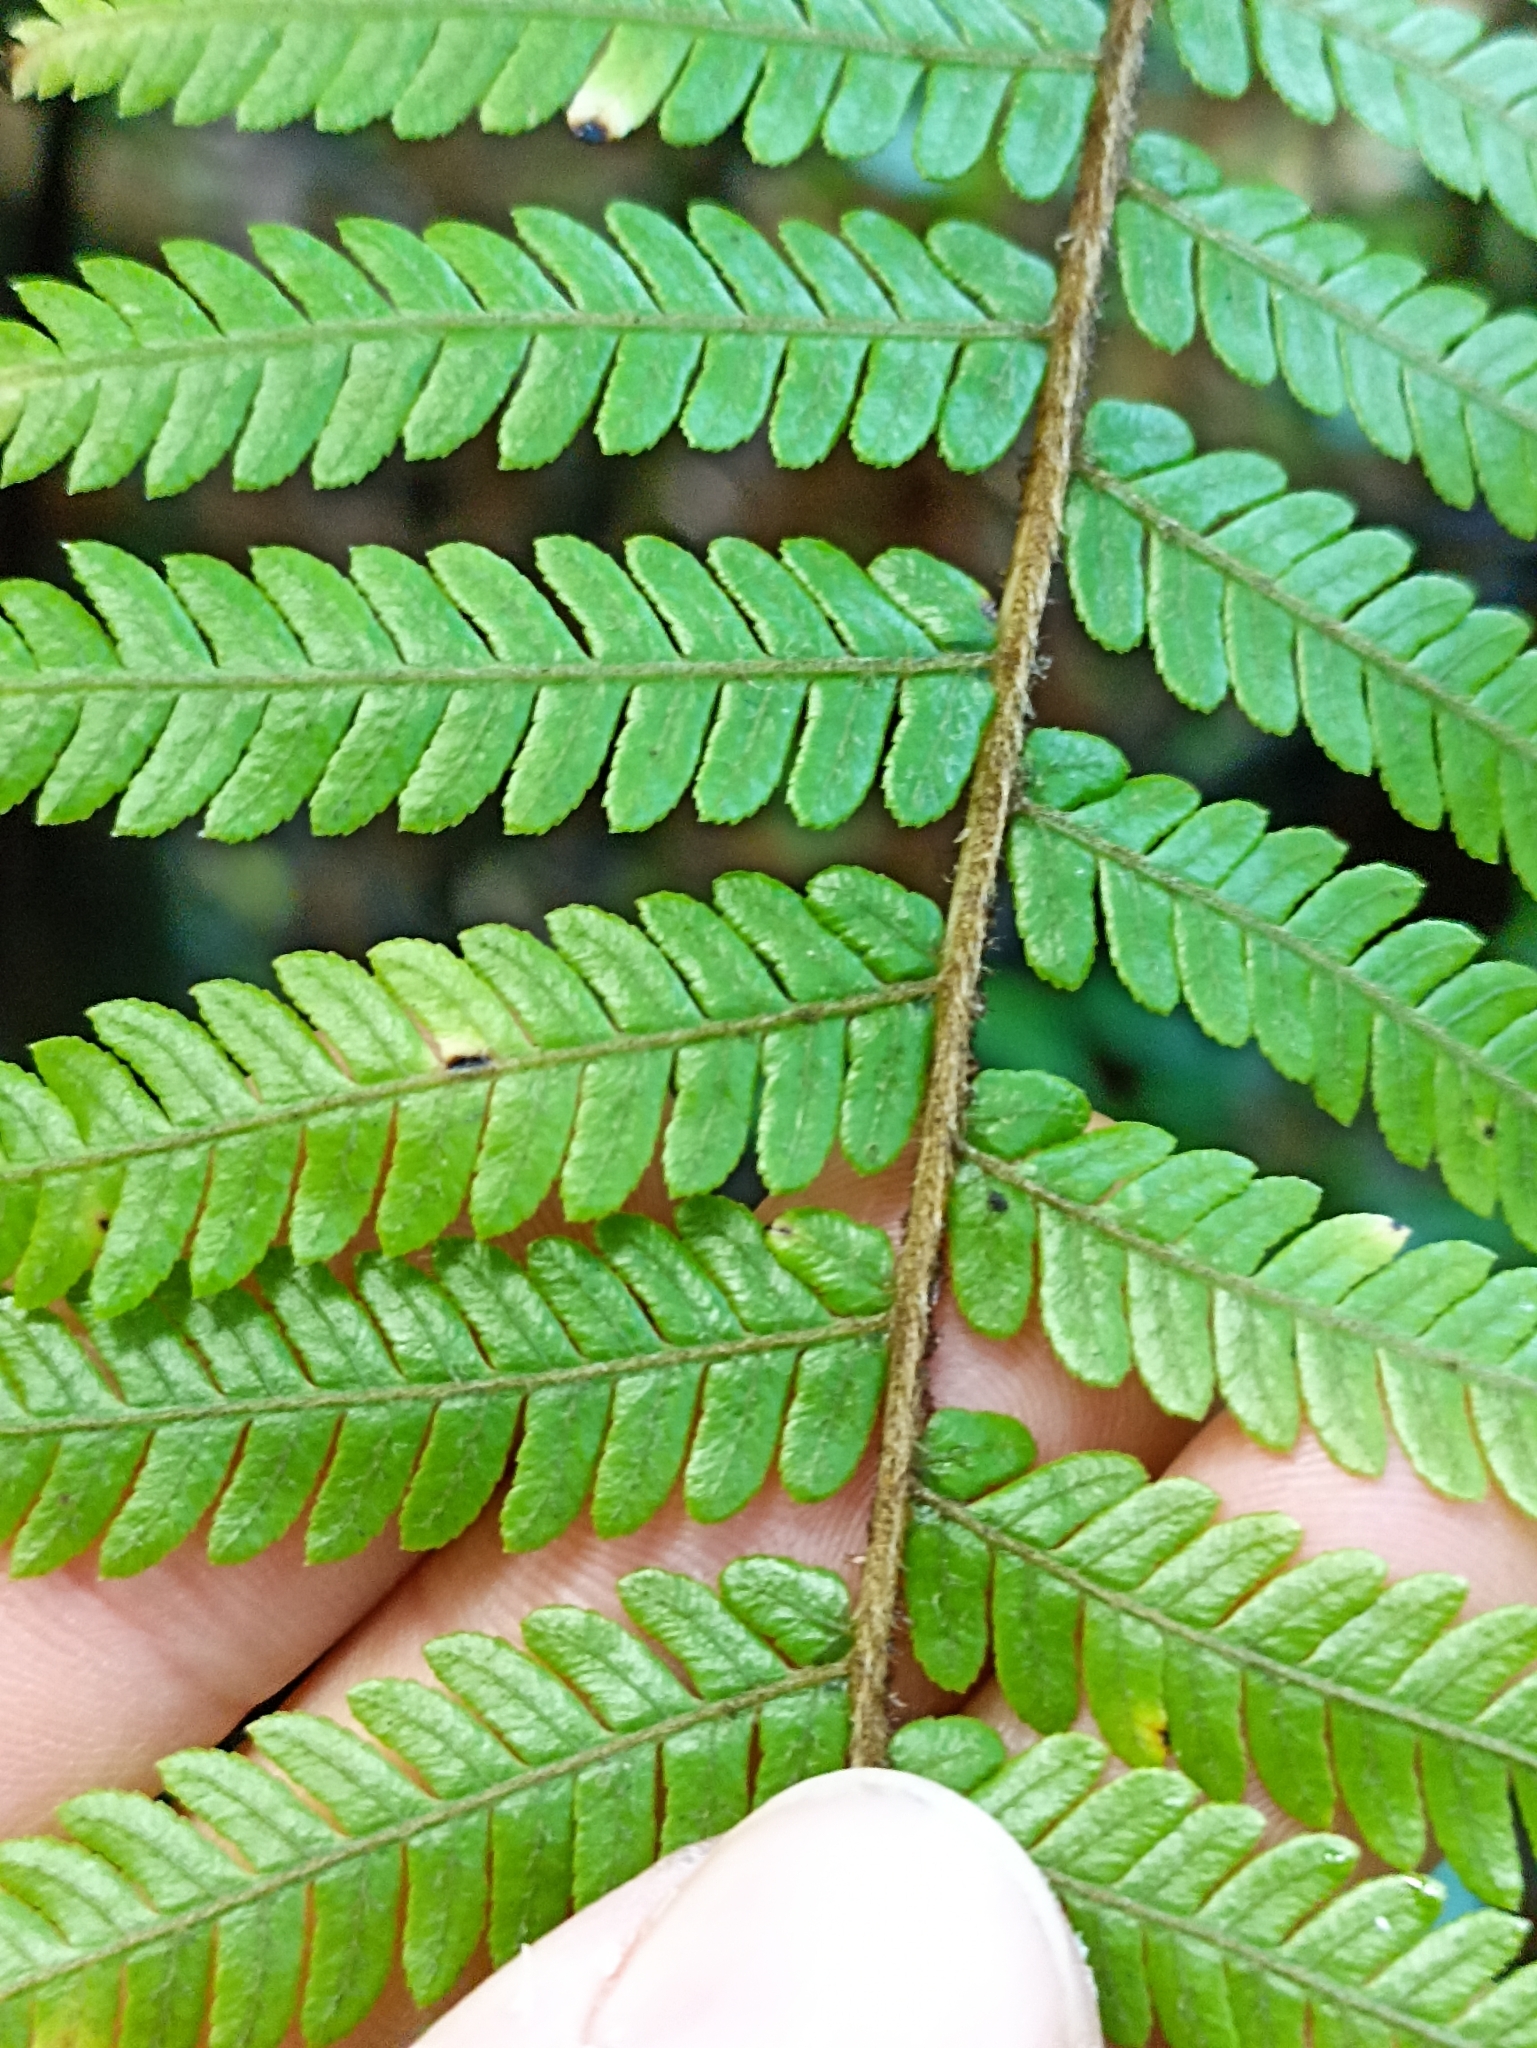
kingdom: Plantae
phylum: Tracheophyta
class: Polypodiopsida
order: Cyatheales
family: Cyatheaceae
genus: Sphaeropteris
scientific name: Sphaeropteris medullaris
